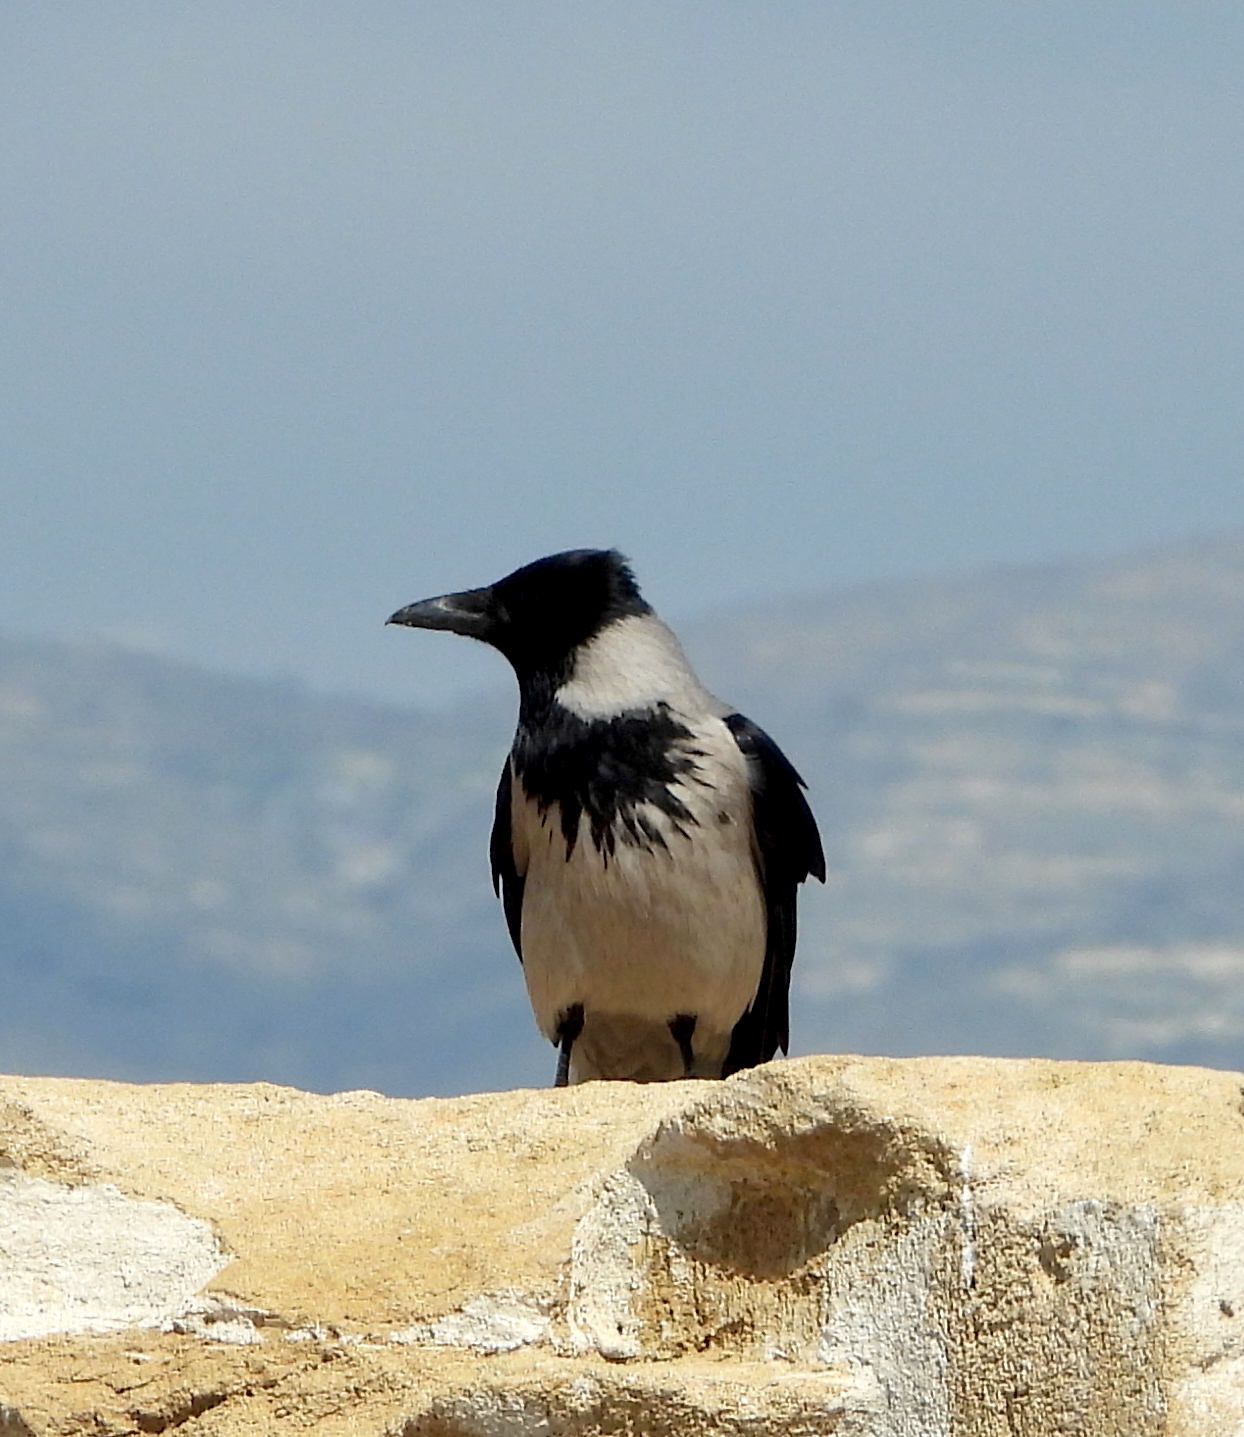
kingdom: Animalia
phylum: Chordata
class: Aves
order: Passeriformes
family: Corvidae
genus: Corvus
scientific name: Corvus cornix
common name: Hooded crow
